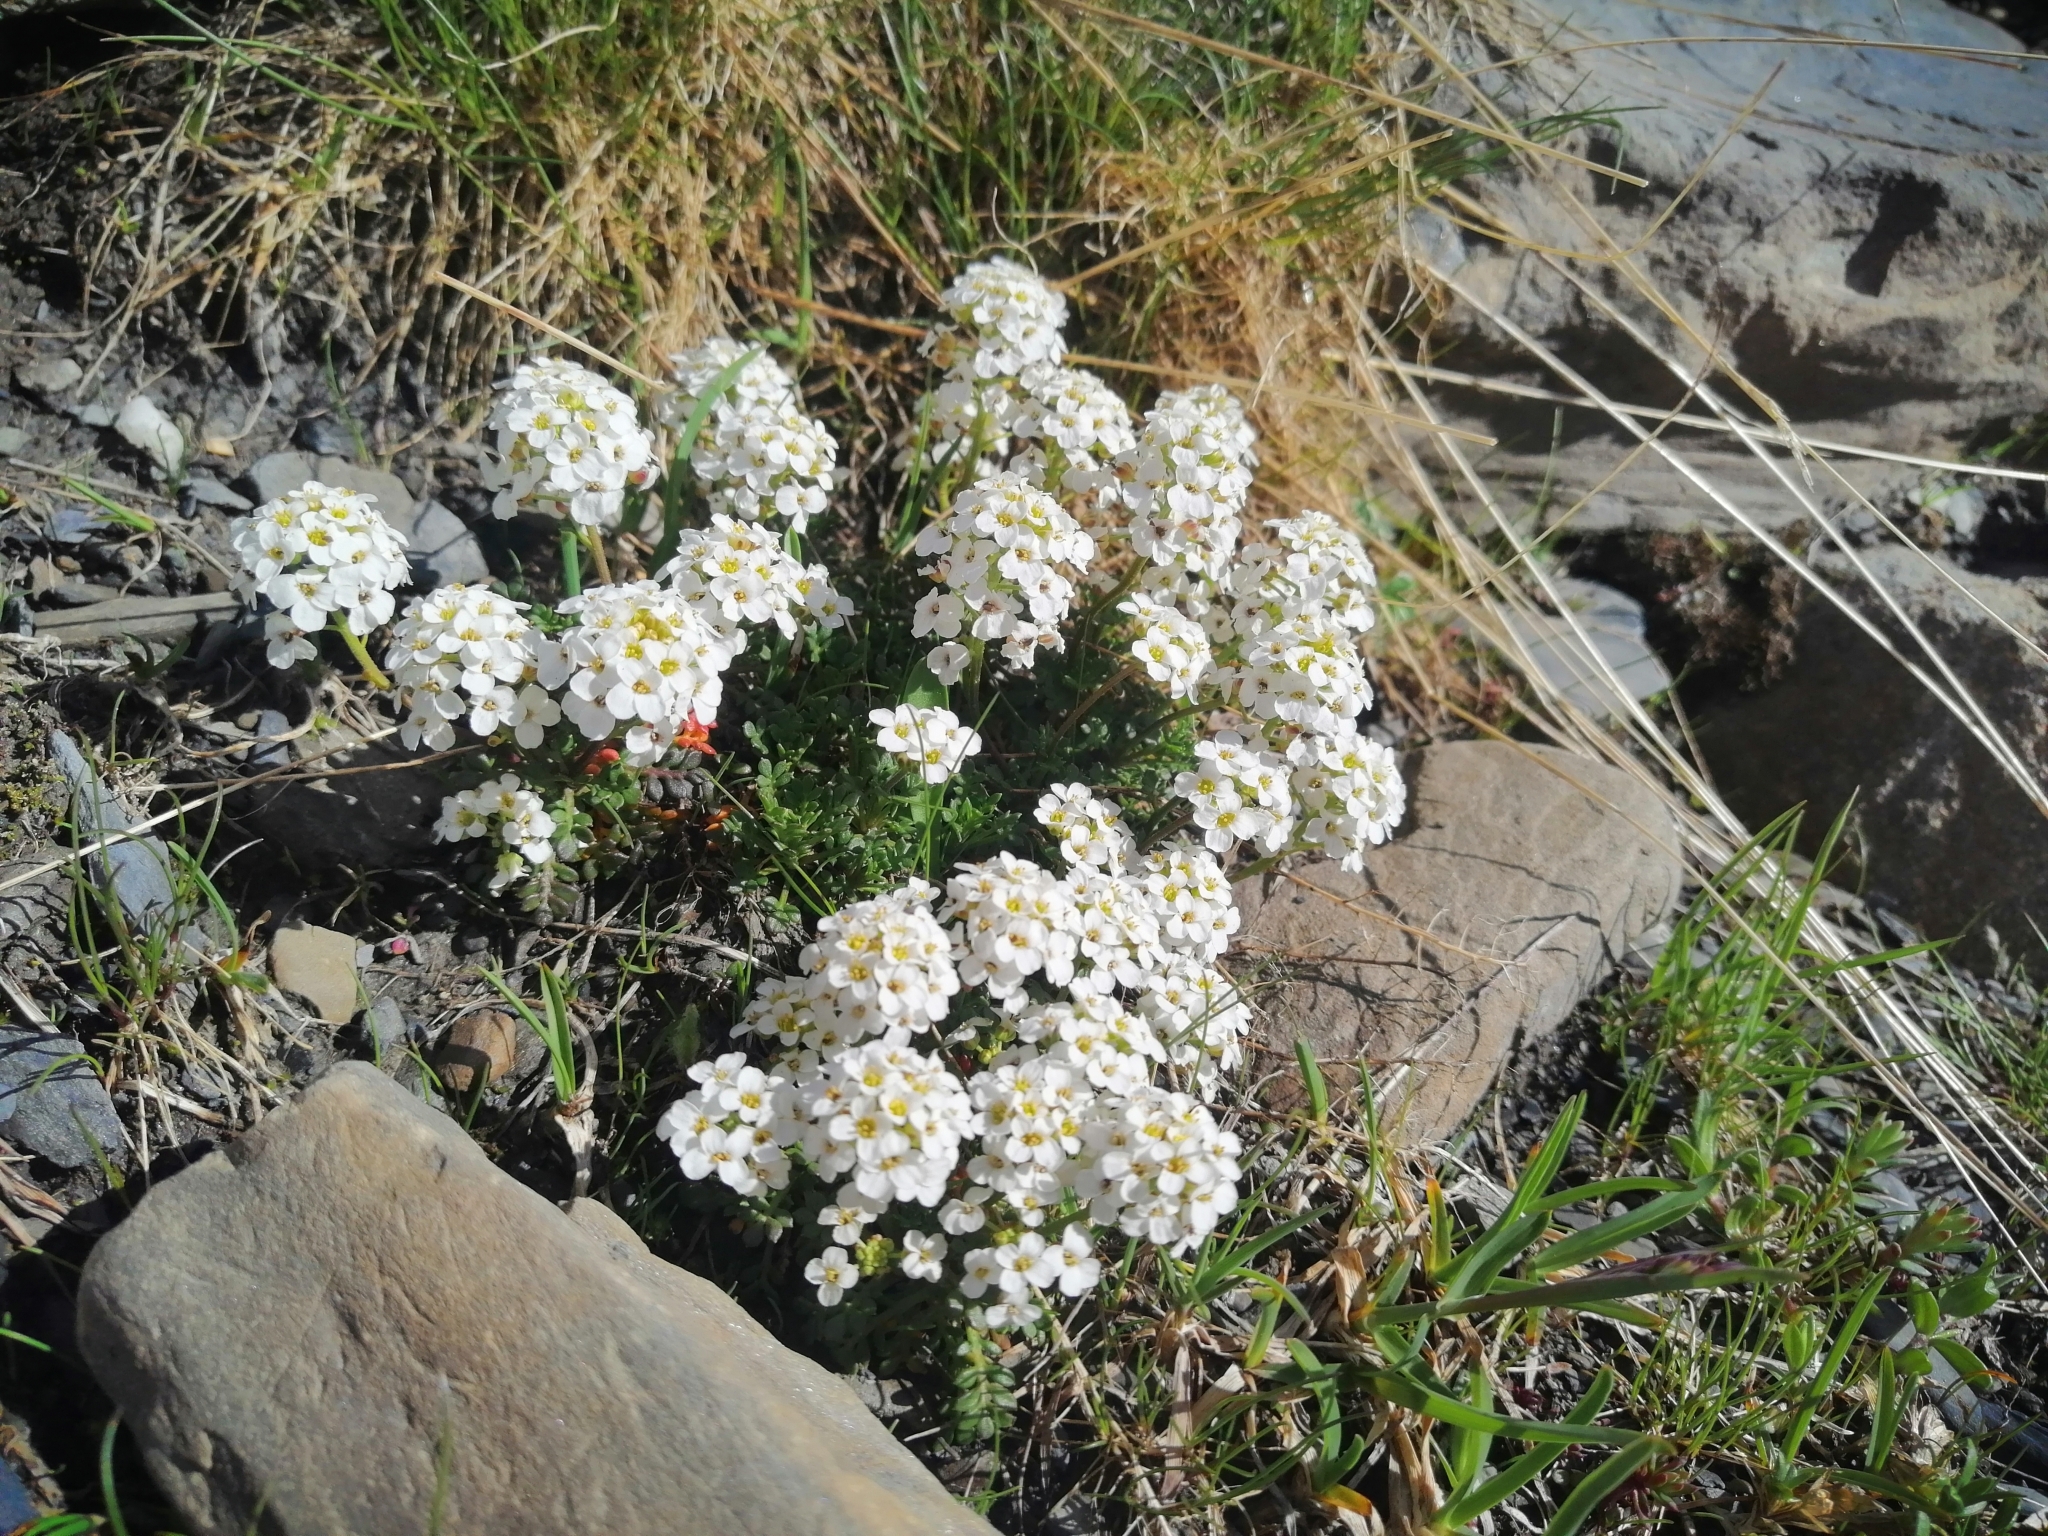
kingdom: Plantae
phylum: Tracheophyta
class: Magnoliopsida
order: Brassicales
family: Brassicaceae
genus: Hornungia
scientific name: Hornungia alpina
